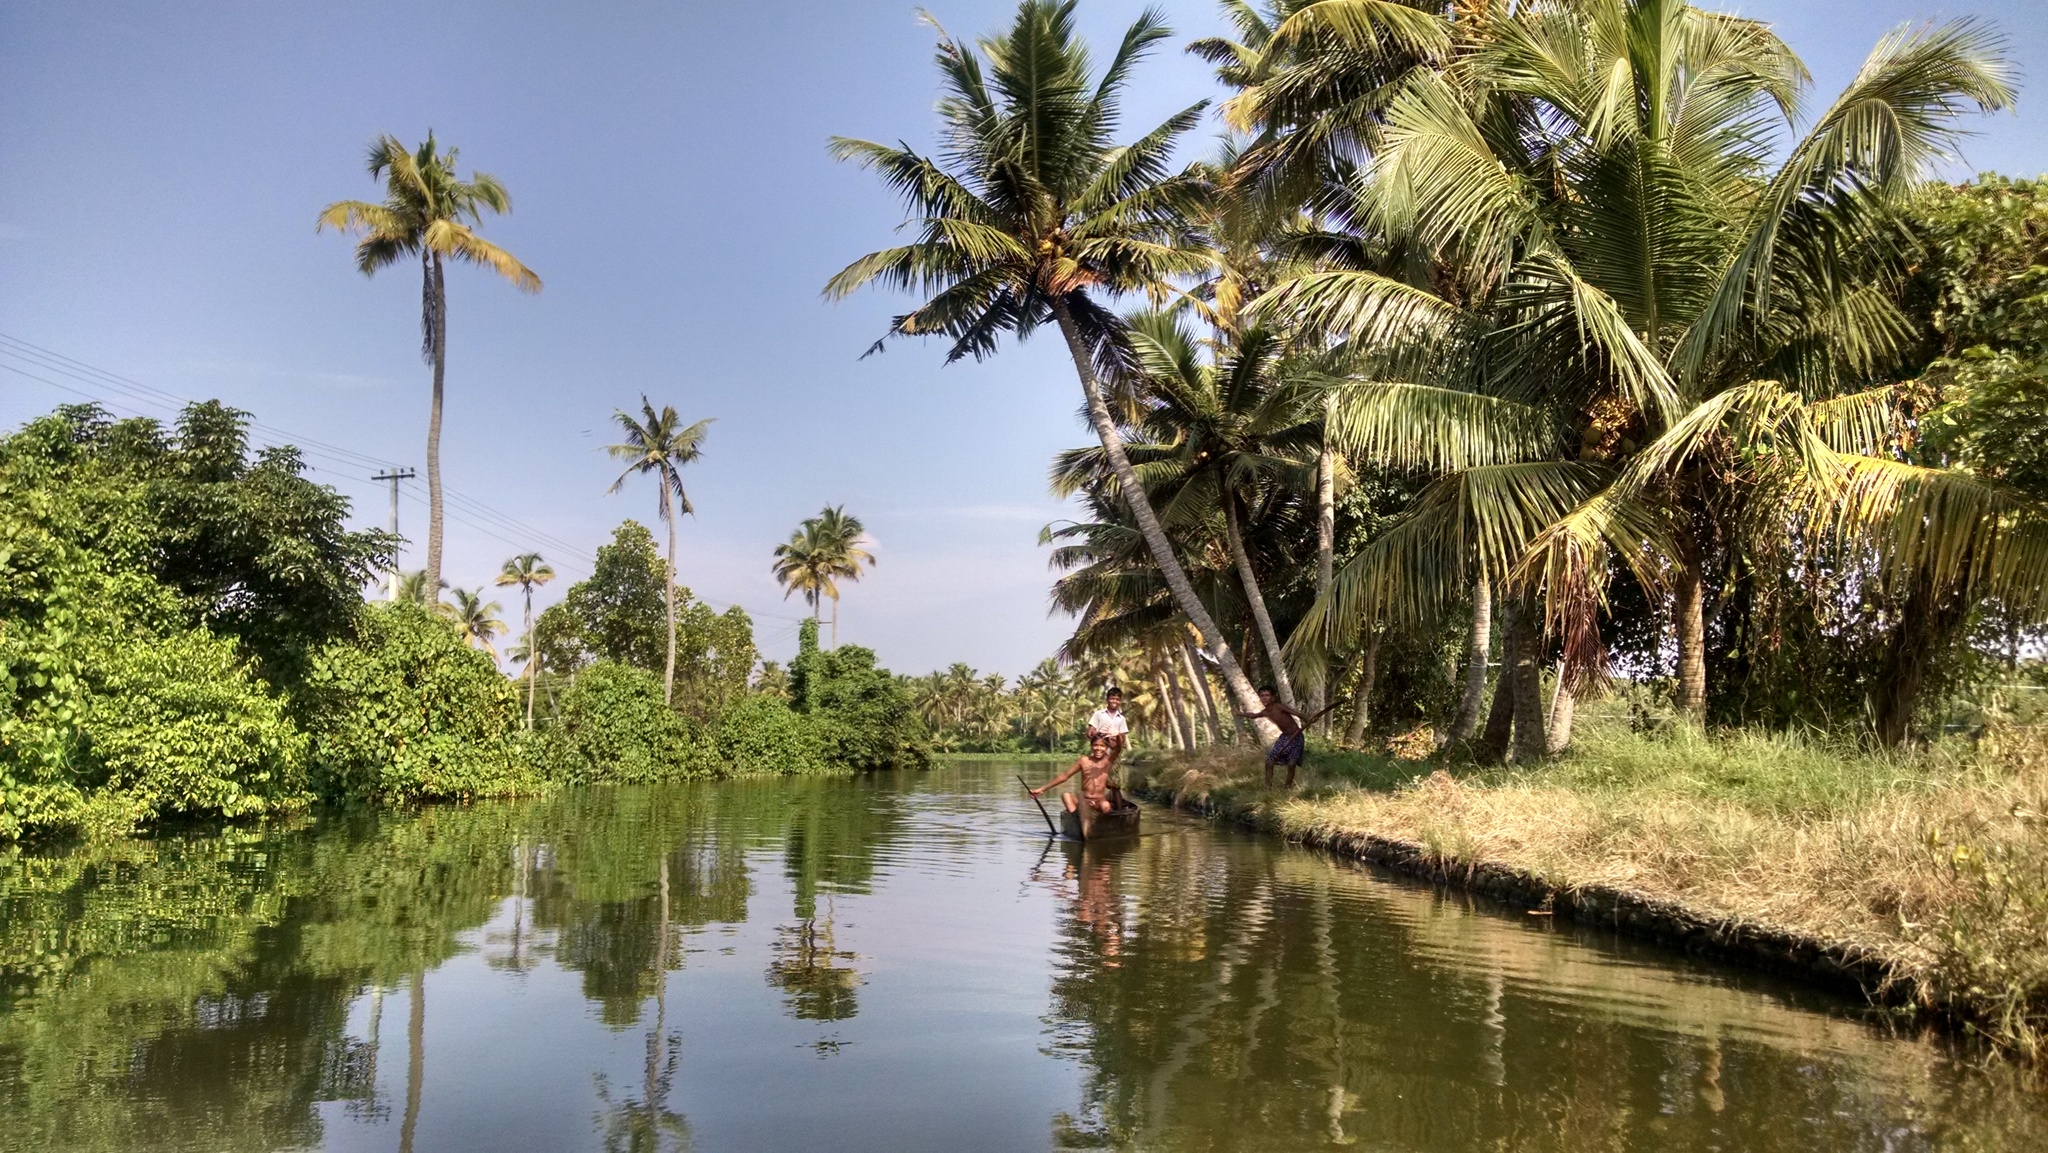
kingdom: Plantae
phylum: Tracheophyta
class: Liliopsida
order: Arecales
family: Arecaceae
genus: Cocos
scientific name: Cocos nucifera
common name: Coconut palm
